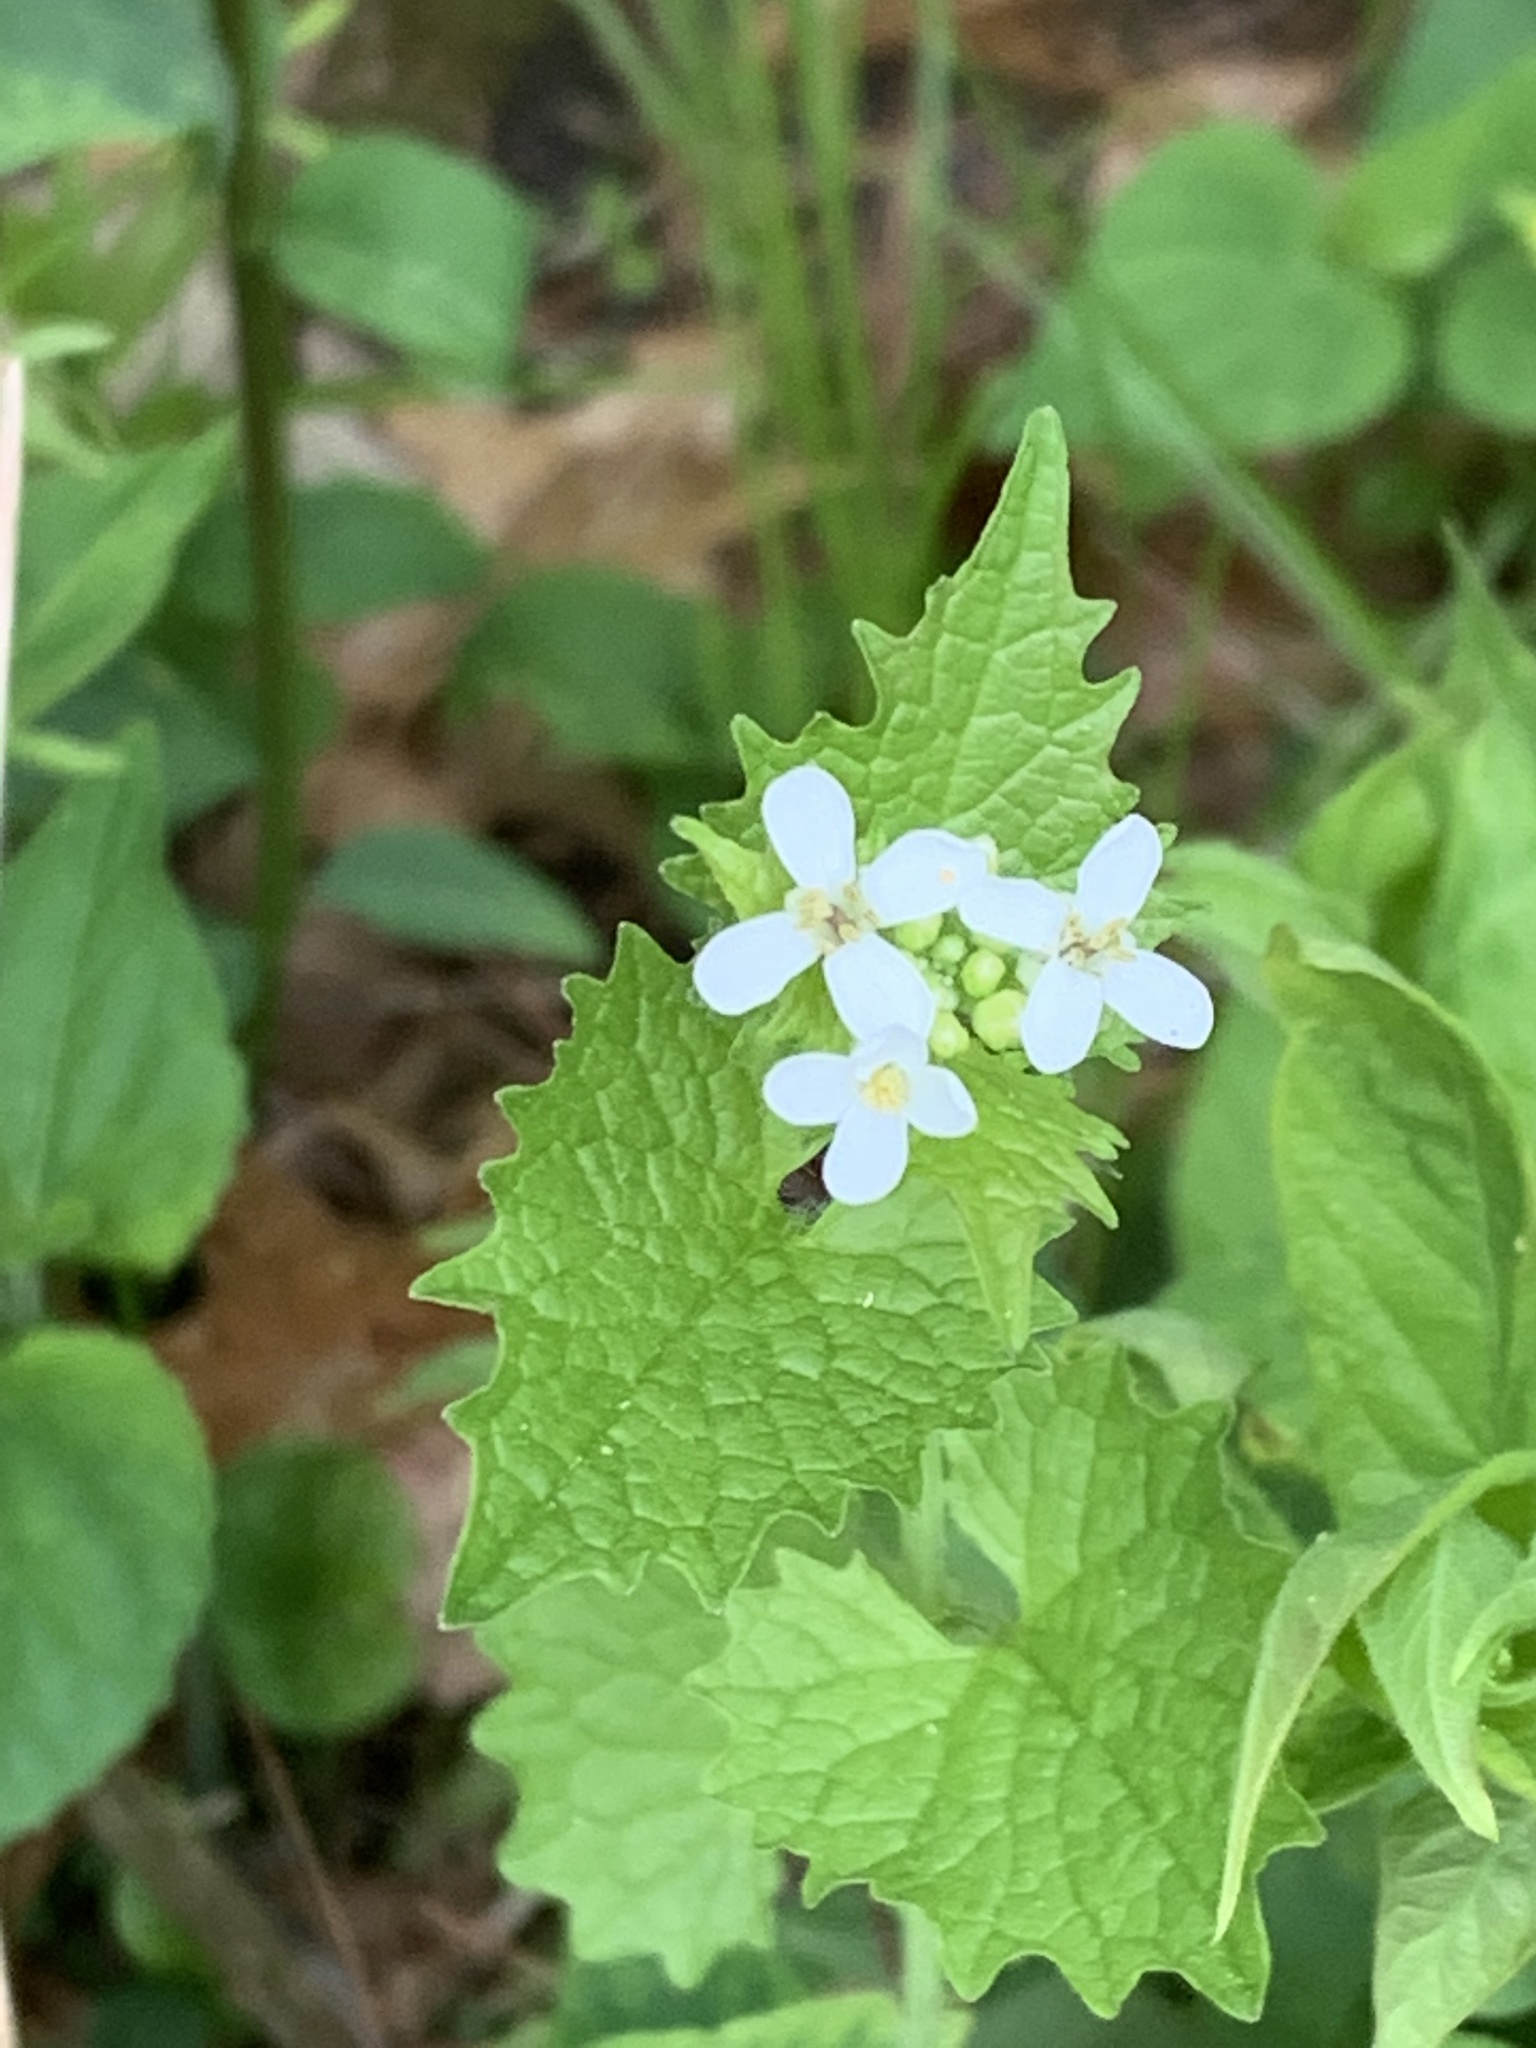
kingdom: Plantae
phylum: Tracheophyta
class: Magnoliopsida
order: Brassicales
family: Brassicaceae
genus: Alliaria
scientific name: Alliaria petiolata
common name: Garlic mustard
